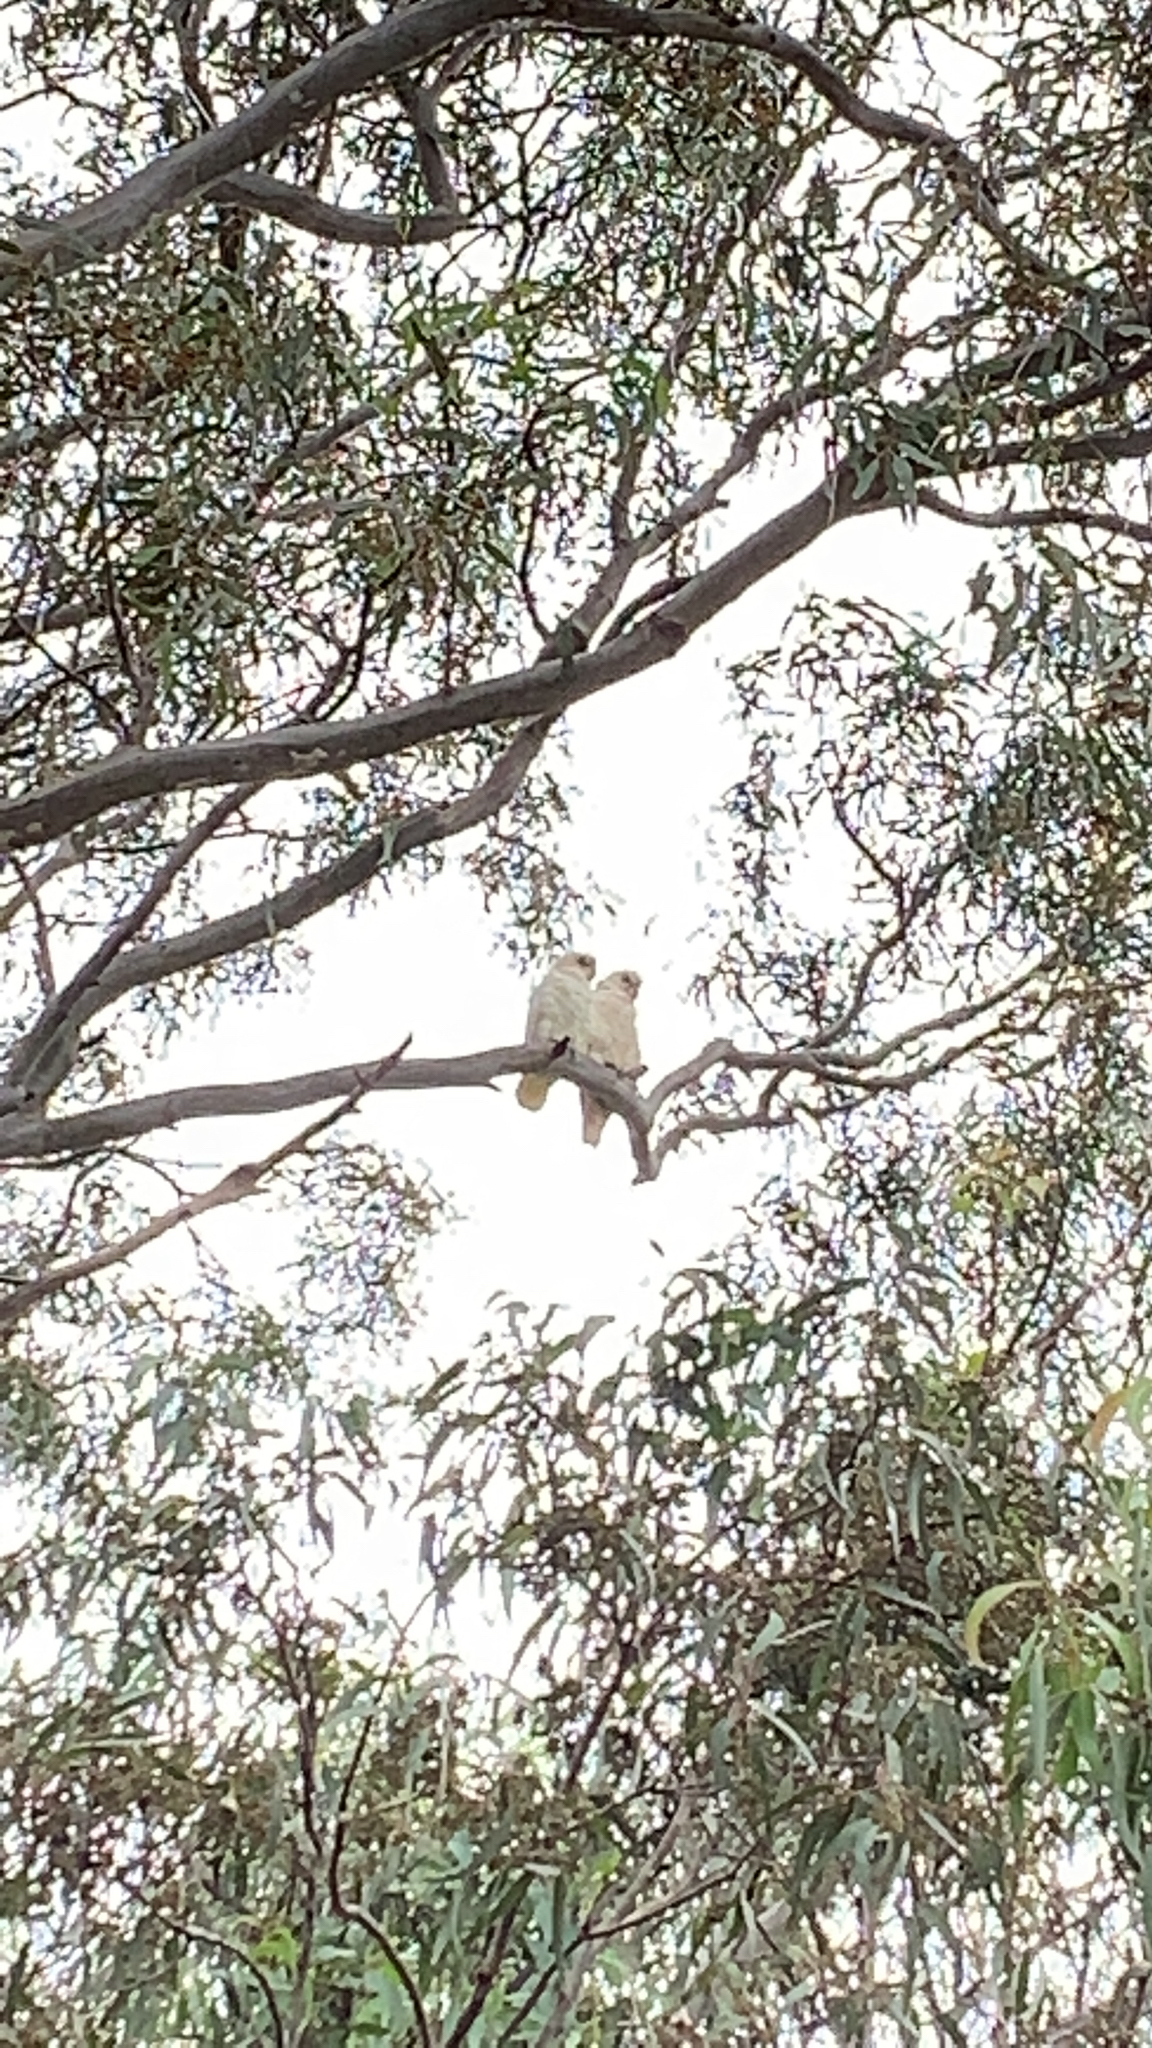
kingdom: Animalia
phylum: Chordata
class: Aves
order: Psittaciformes
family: Psittacidae
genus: Cacatua
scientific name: Cacatua sanguinea
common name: Little corella
